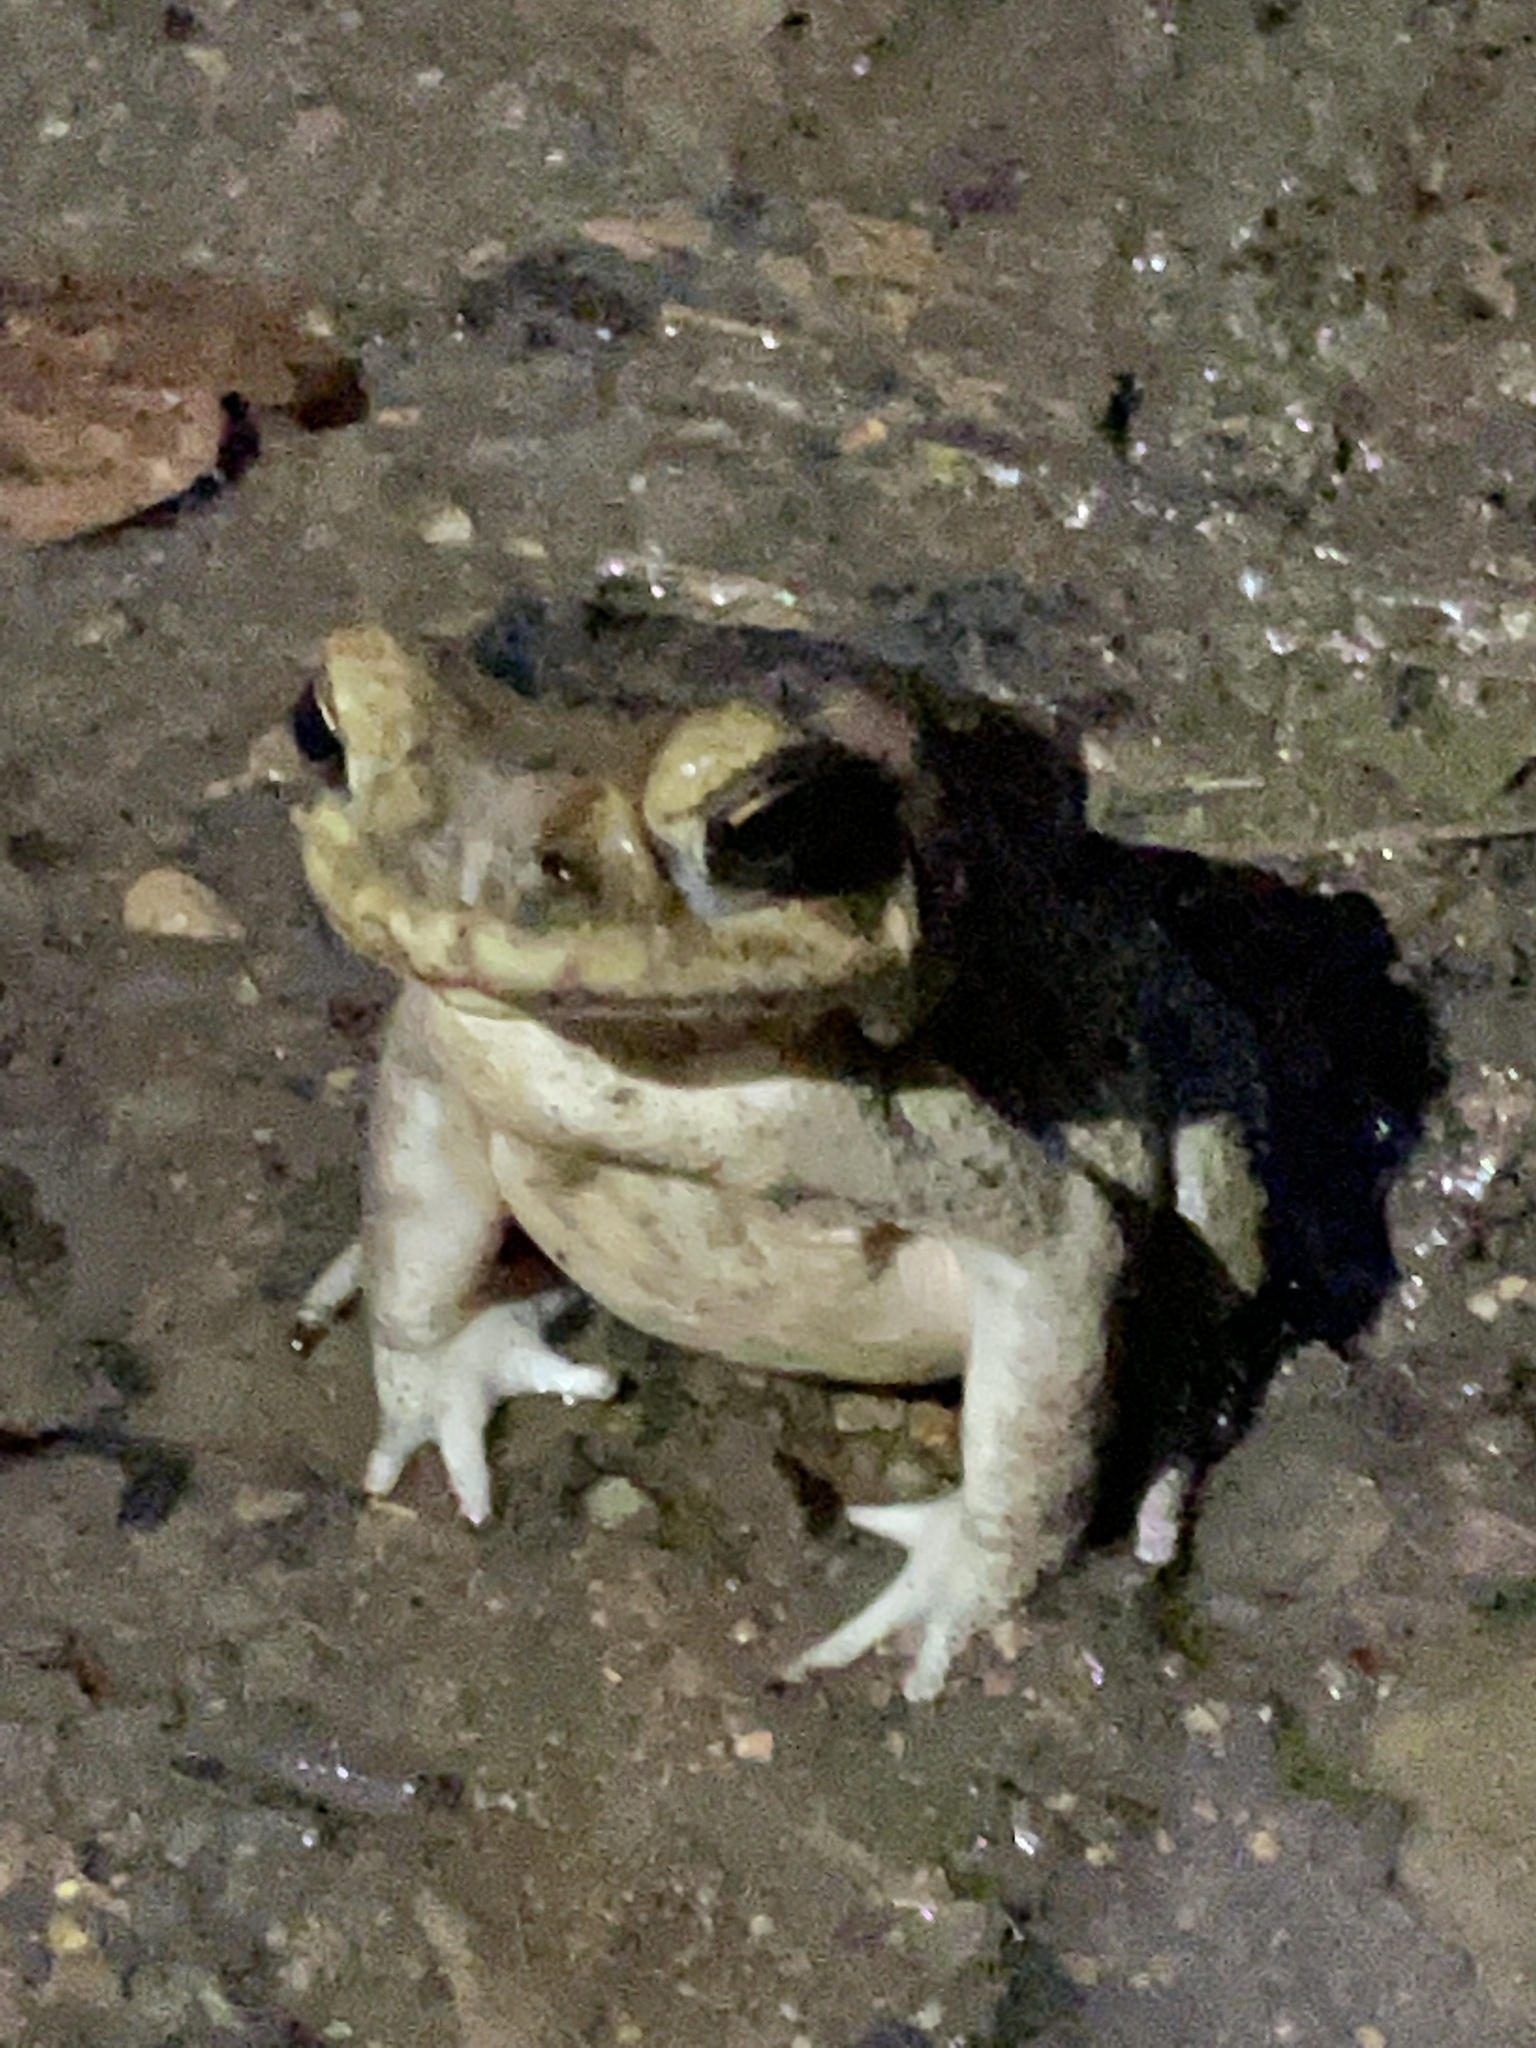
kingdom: Animalia
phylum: Chordata
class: Amphibia
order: Anura
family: Bufonidae
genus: Rhinella
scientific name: Rhinella horribilis
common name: Mesoamerican cane toad
